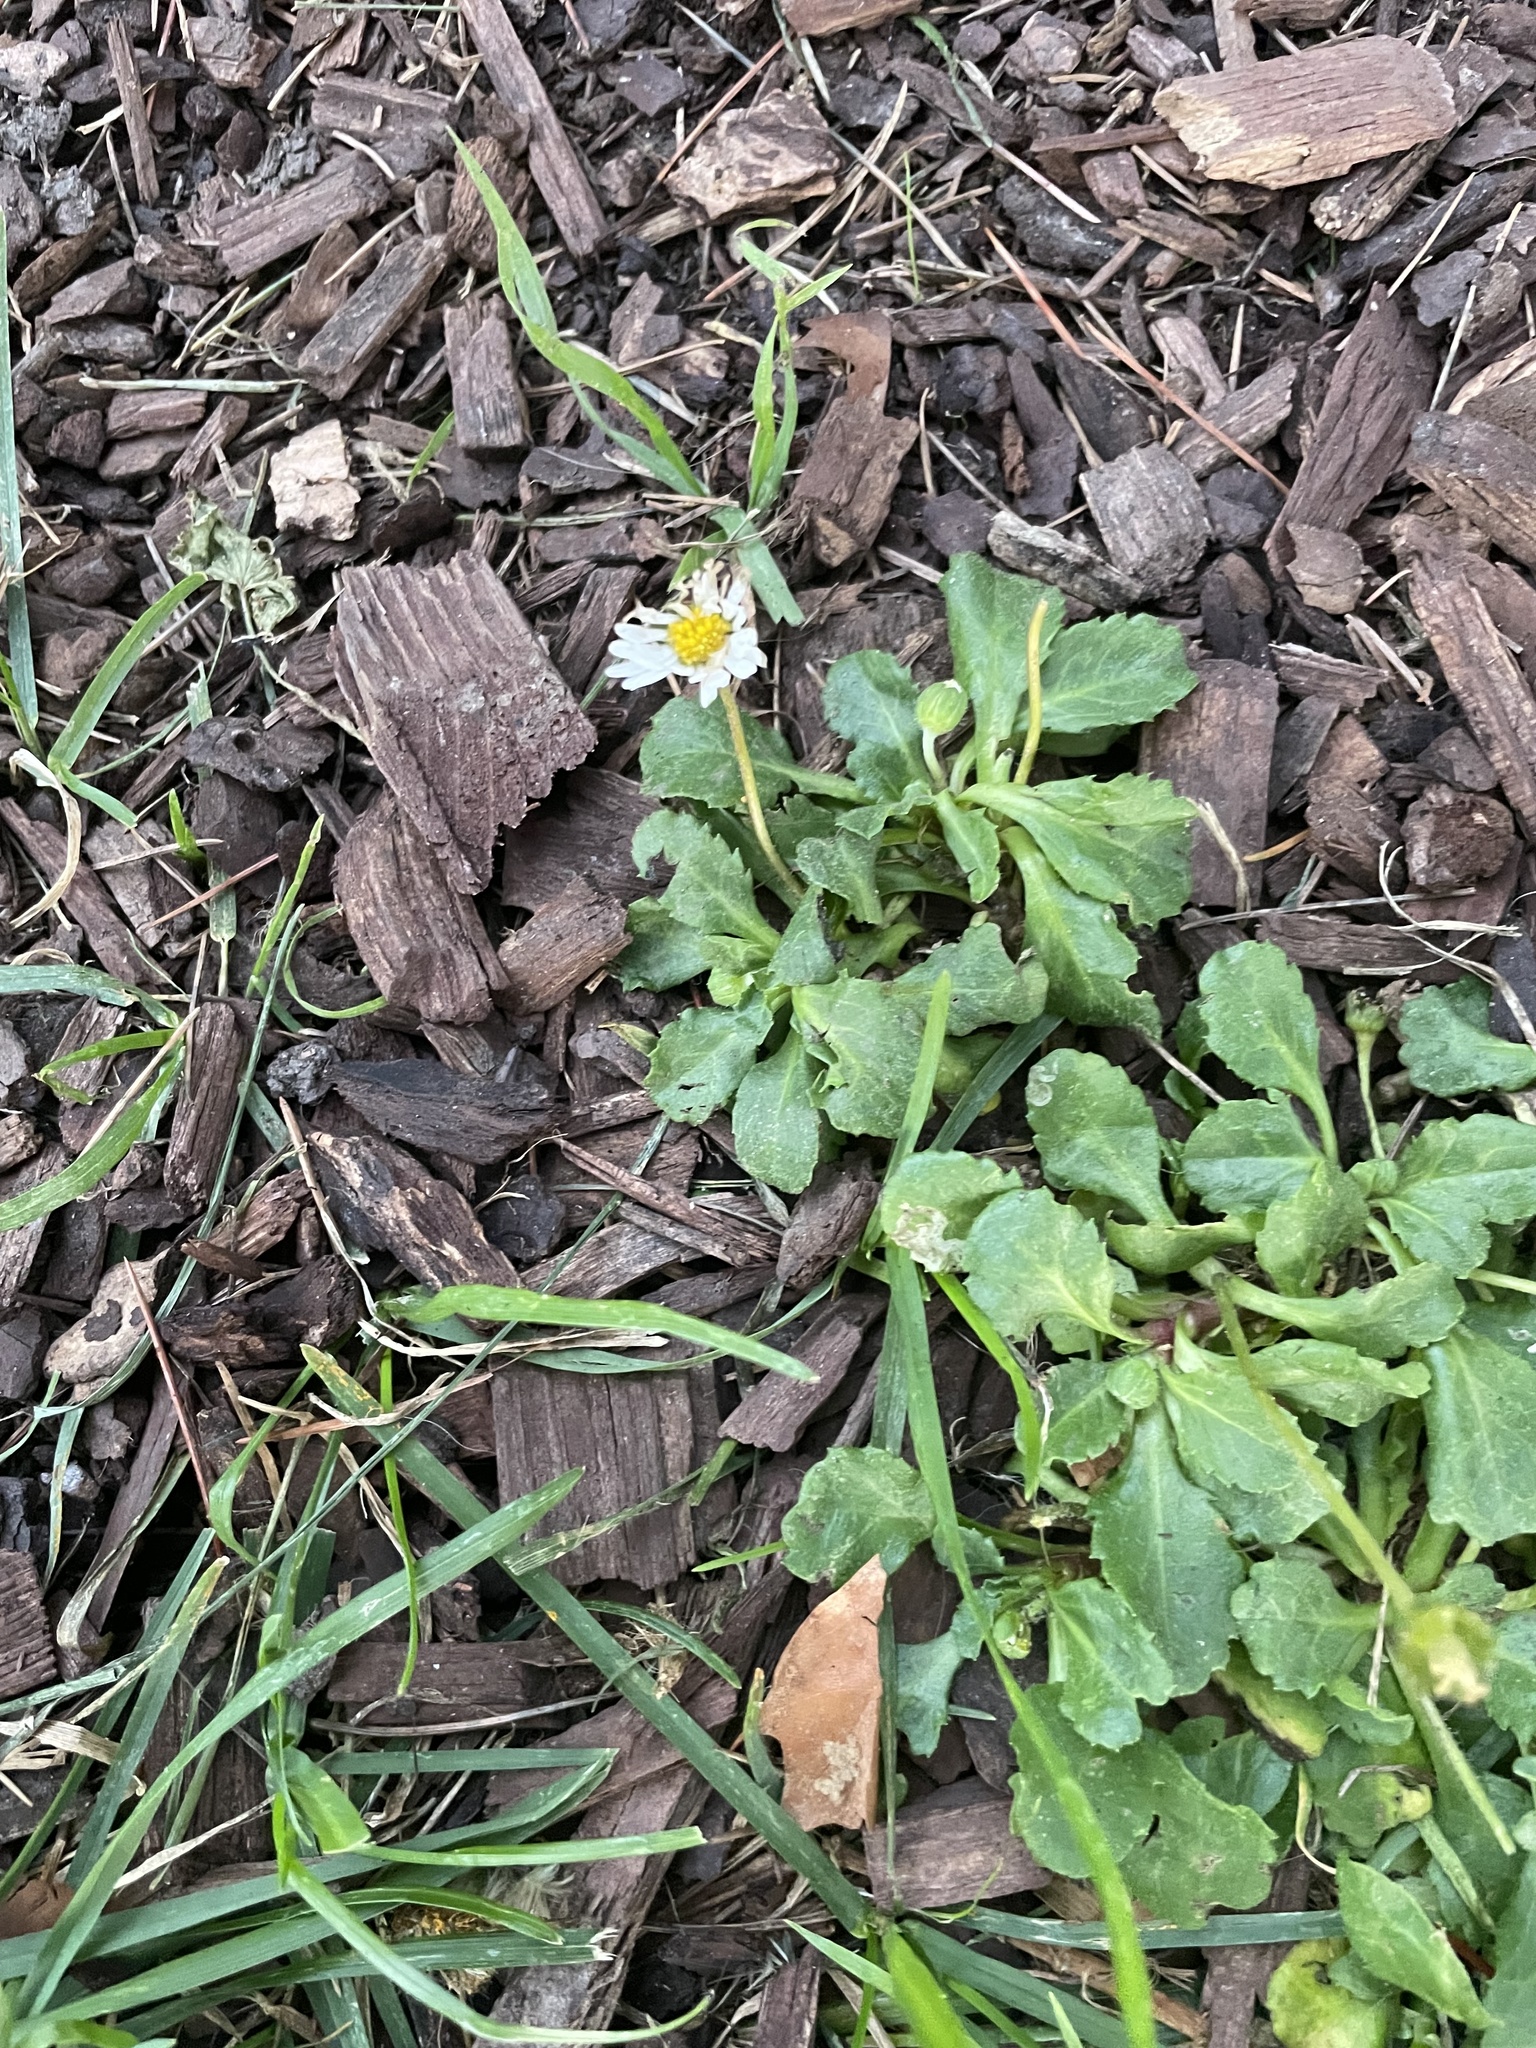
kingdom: Plantae
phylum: Tracheophyta
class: Magnoliopsida
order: Asterales
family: Asteraceae
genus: Bellis
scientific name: Bellis perennis
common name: Lawndaisy
